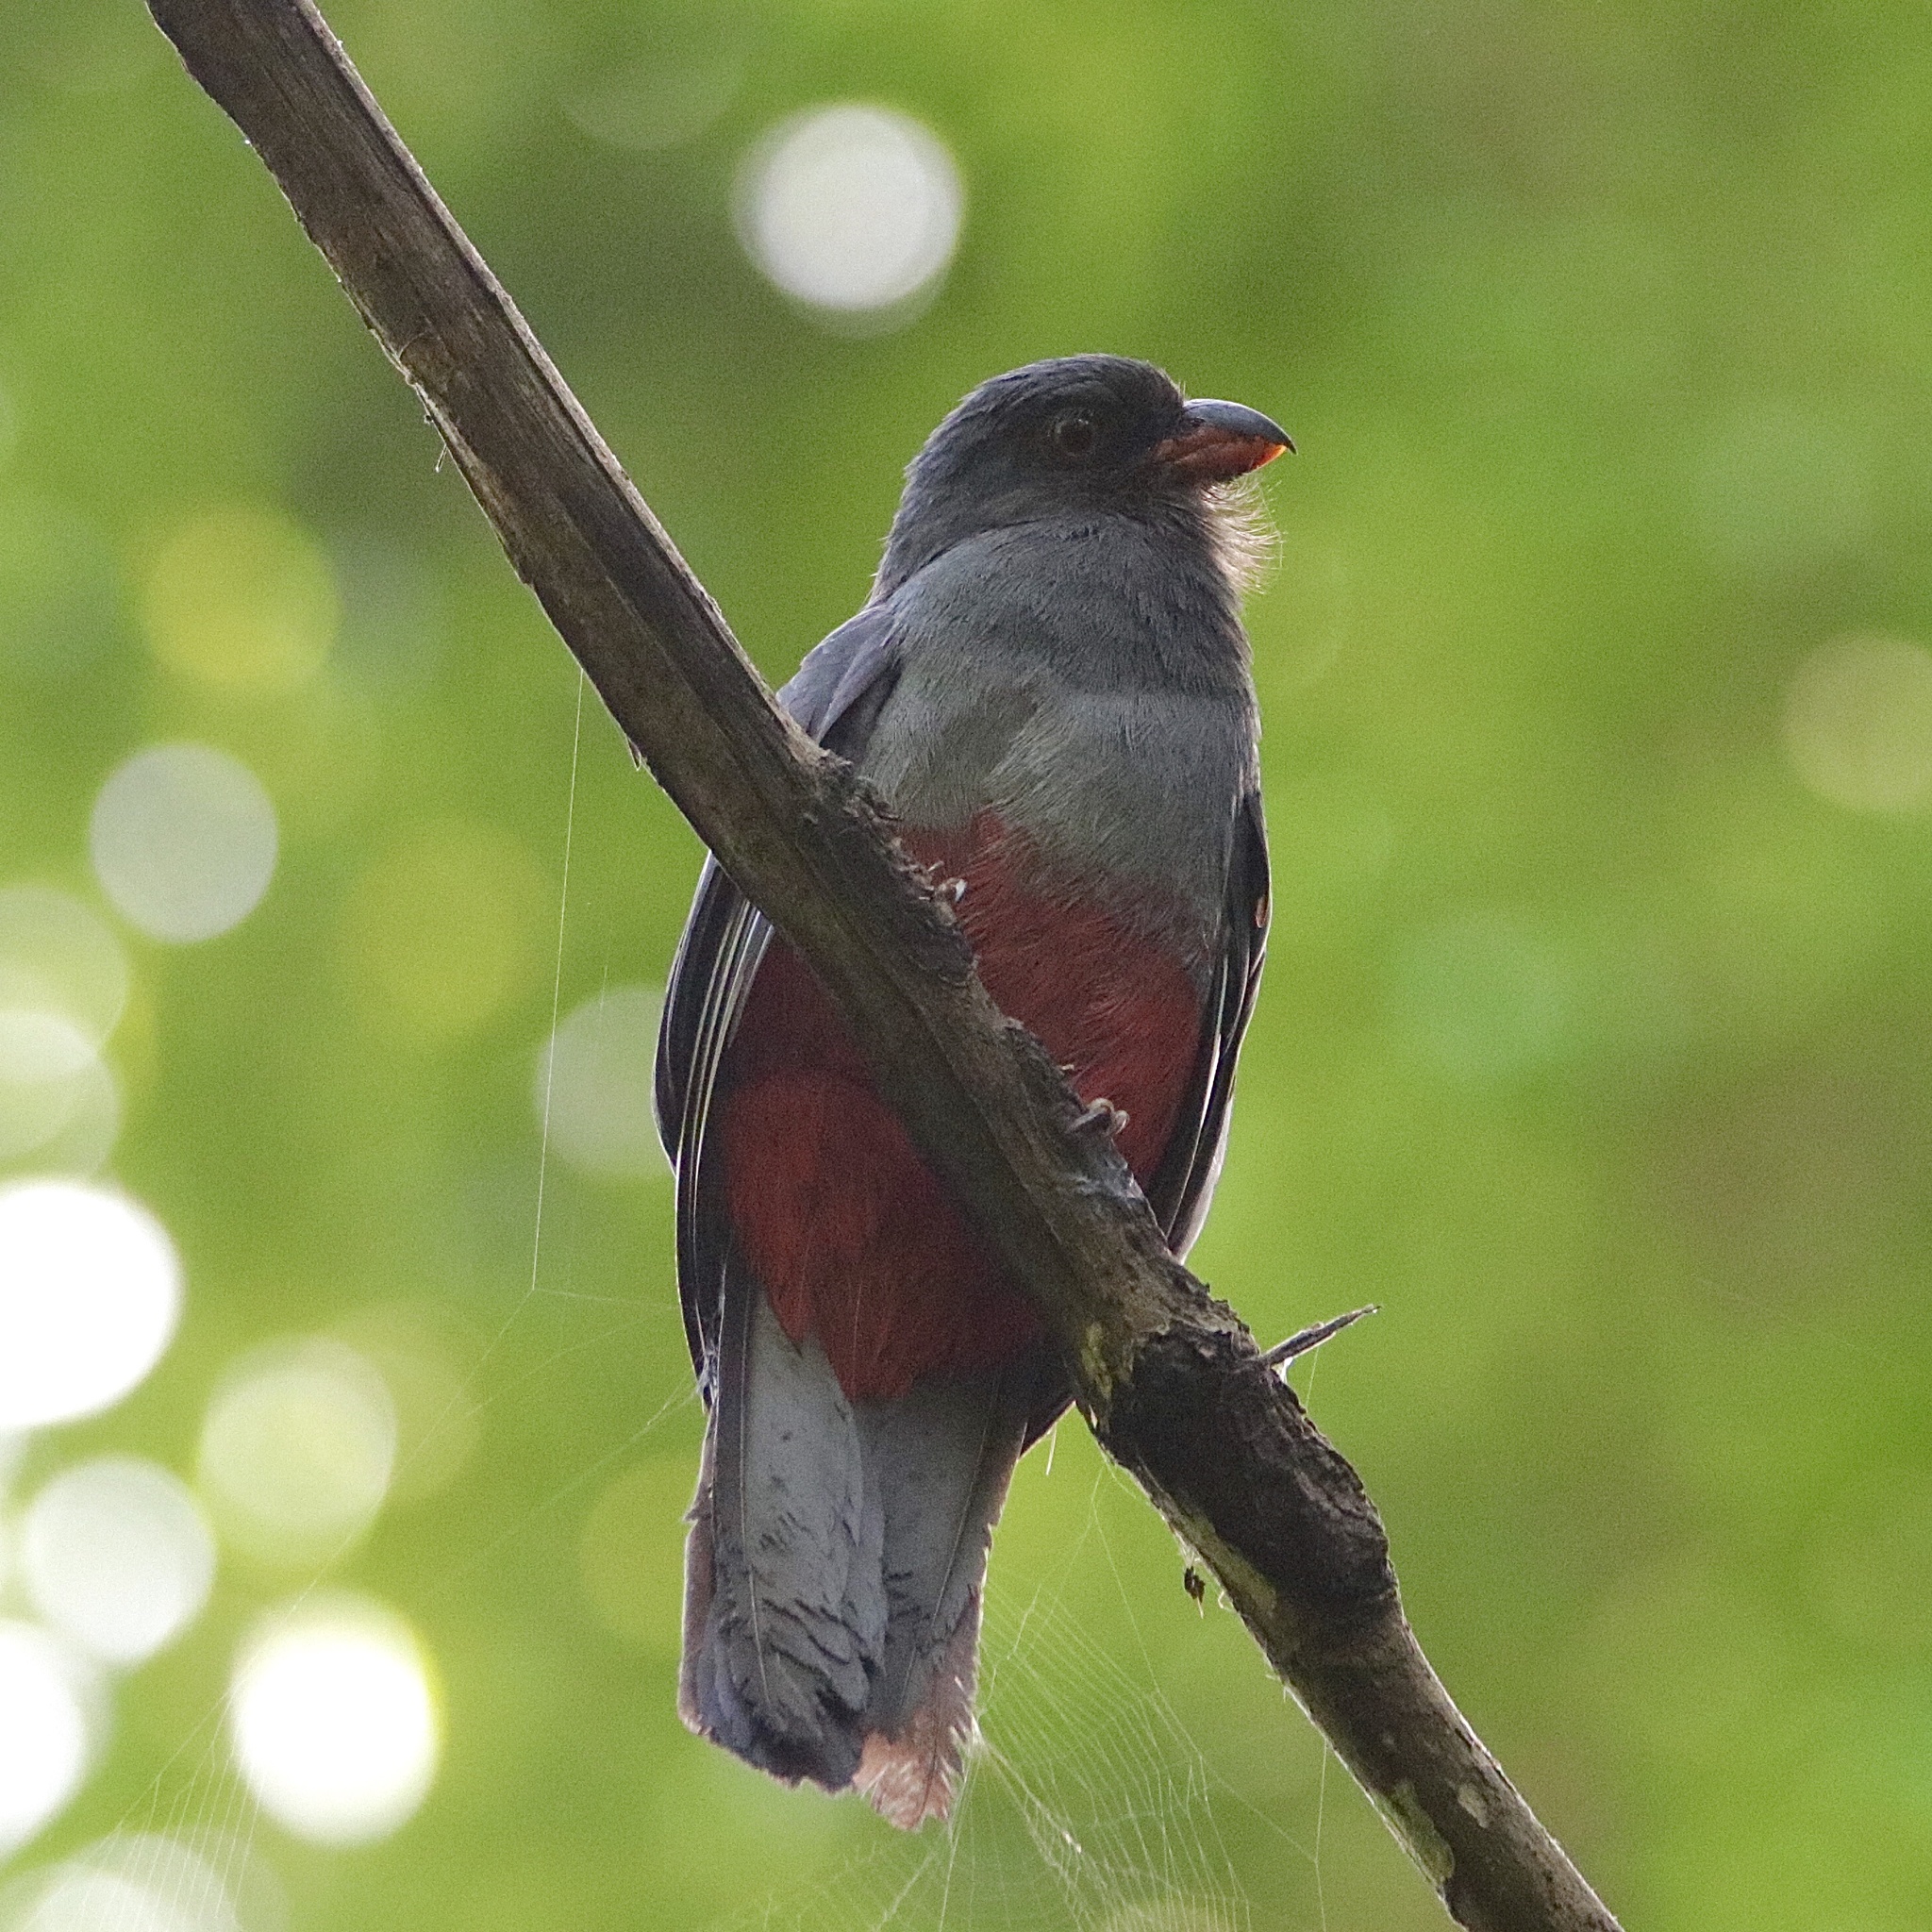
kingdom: Animalia
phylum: Chordata
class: Aves
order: Trogoniformes
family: Trogonidae
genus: Trogon
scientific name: Trogon massena
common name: Slaty-tailed trogon
